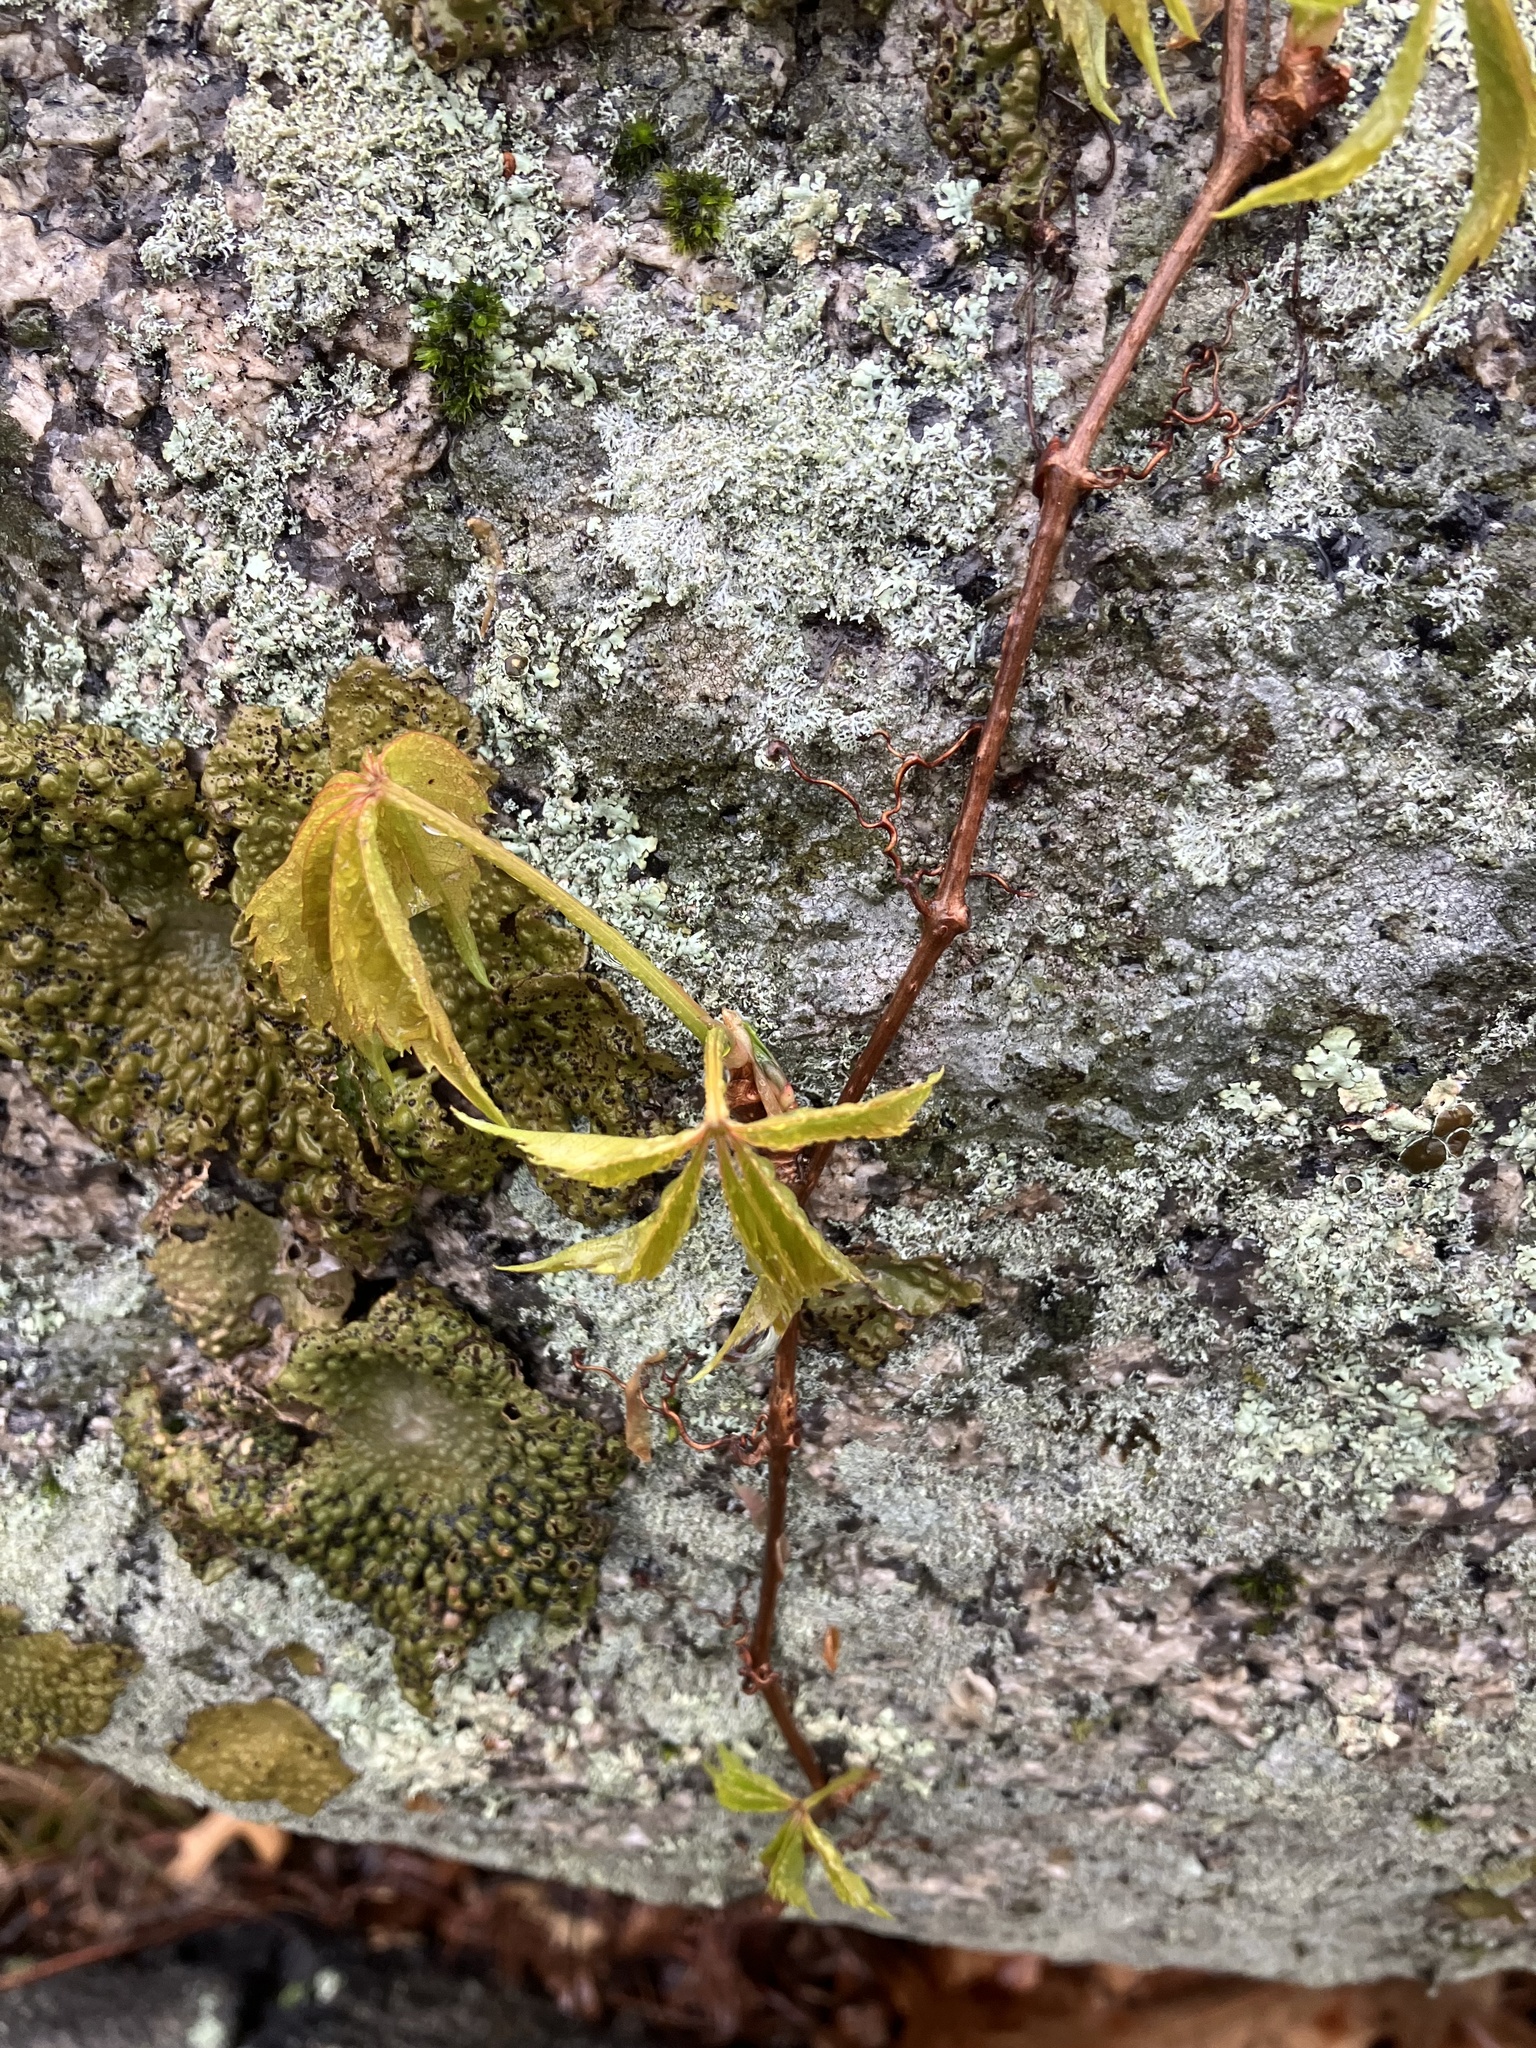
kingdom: Plantae
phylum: Tracheophyta
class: Magnoliopsida
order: Vitales
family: Vitaceae
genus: Parthenocissus
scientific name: Parthenocissus quinquefolia
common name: Virginia-creeper
